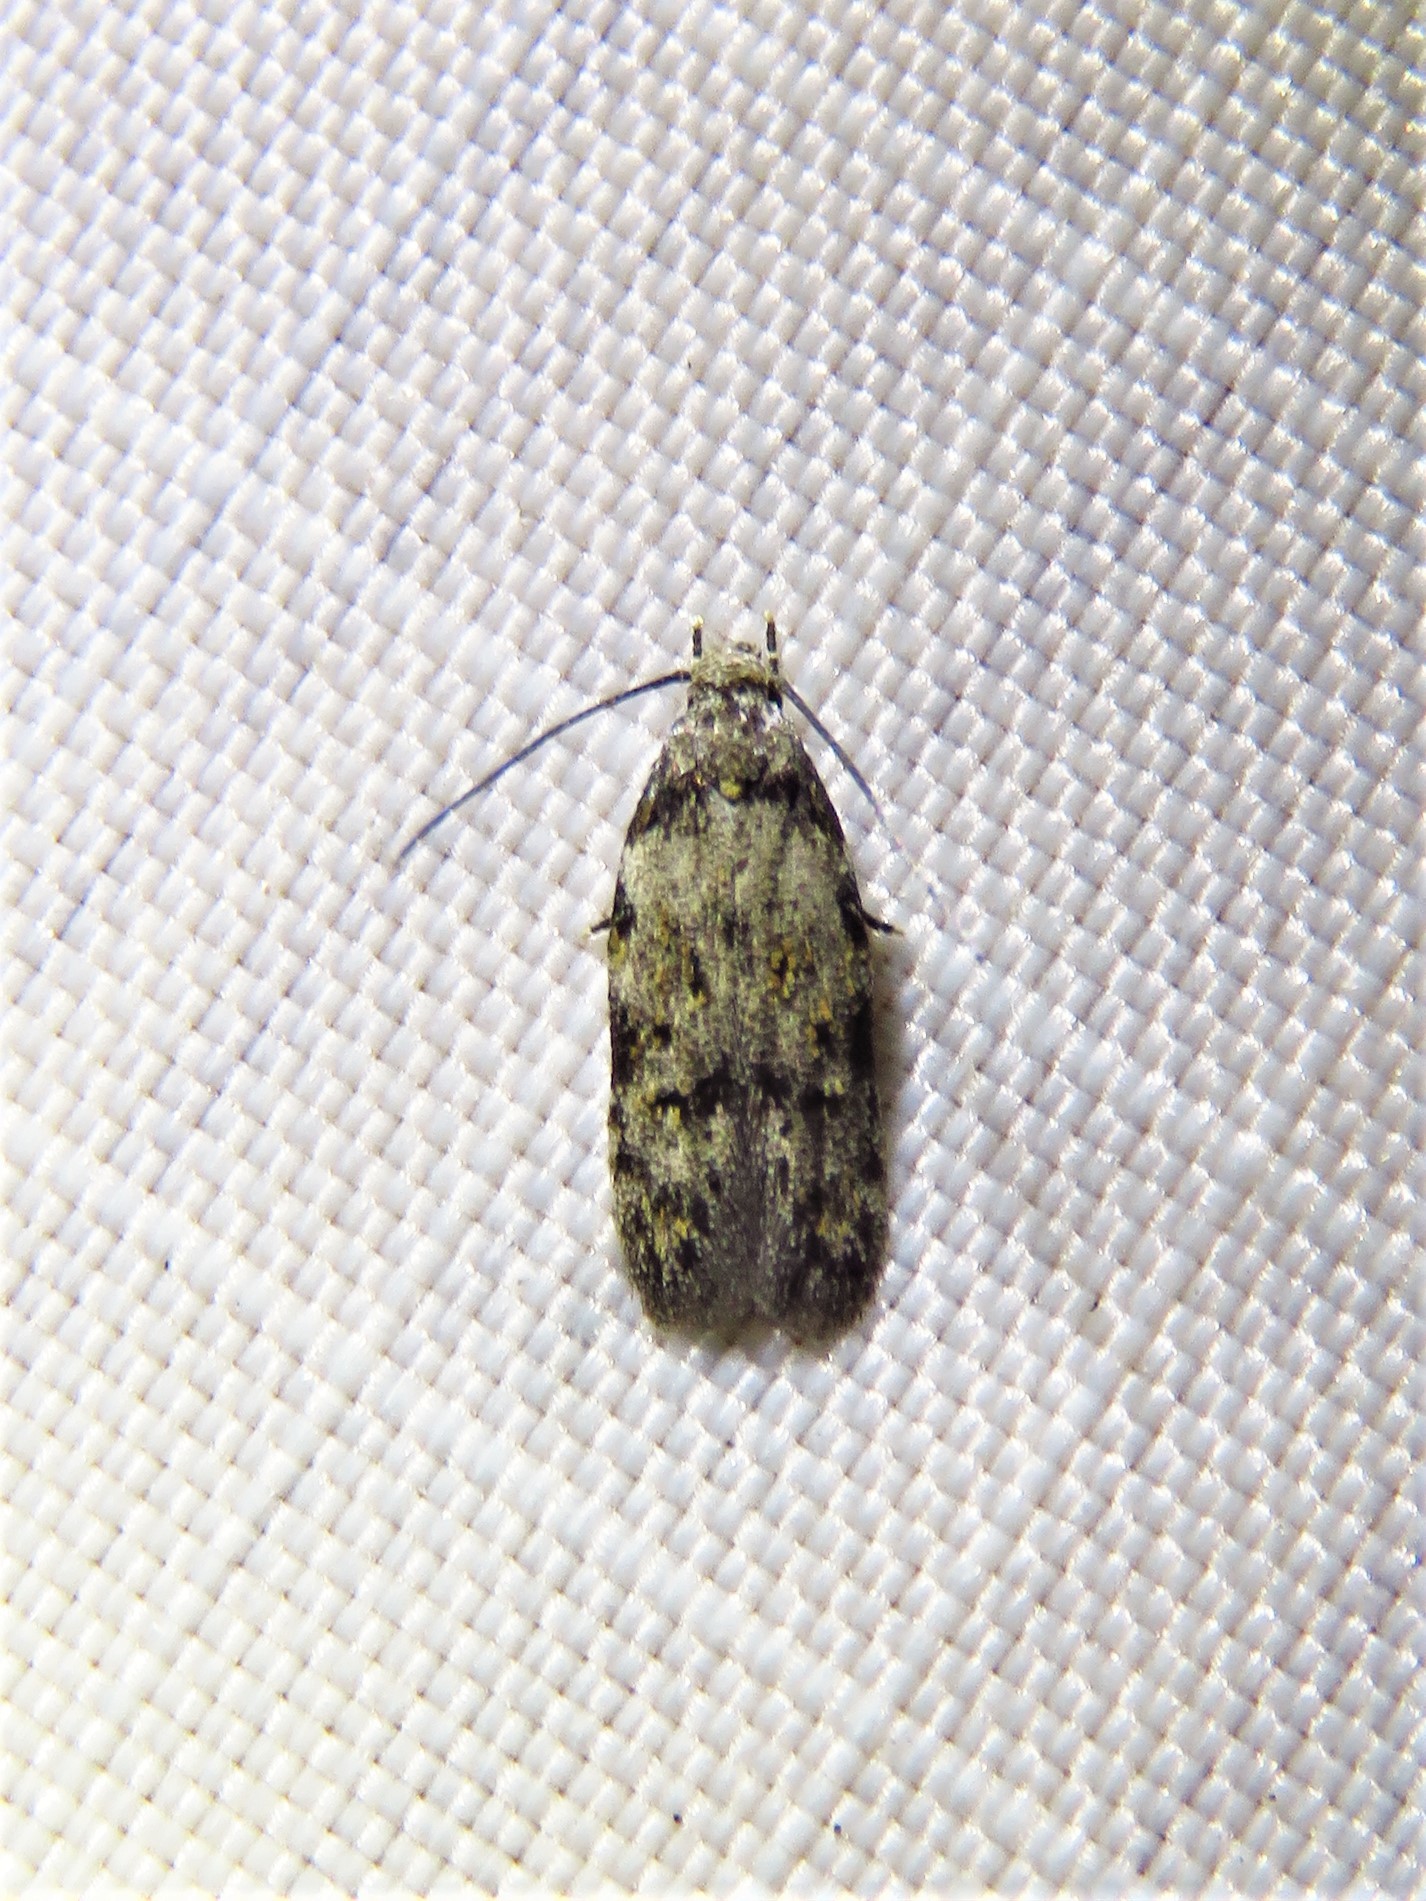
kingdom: Animalia
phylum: Arthropoda
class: Insecta
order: Lepidoptera
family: Autostichidae
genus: Taygete
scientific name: Taygete attributella
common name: Triangle-marked twirler moth
